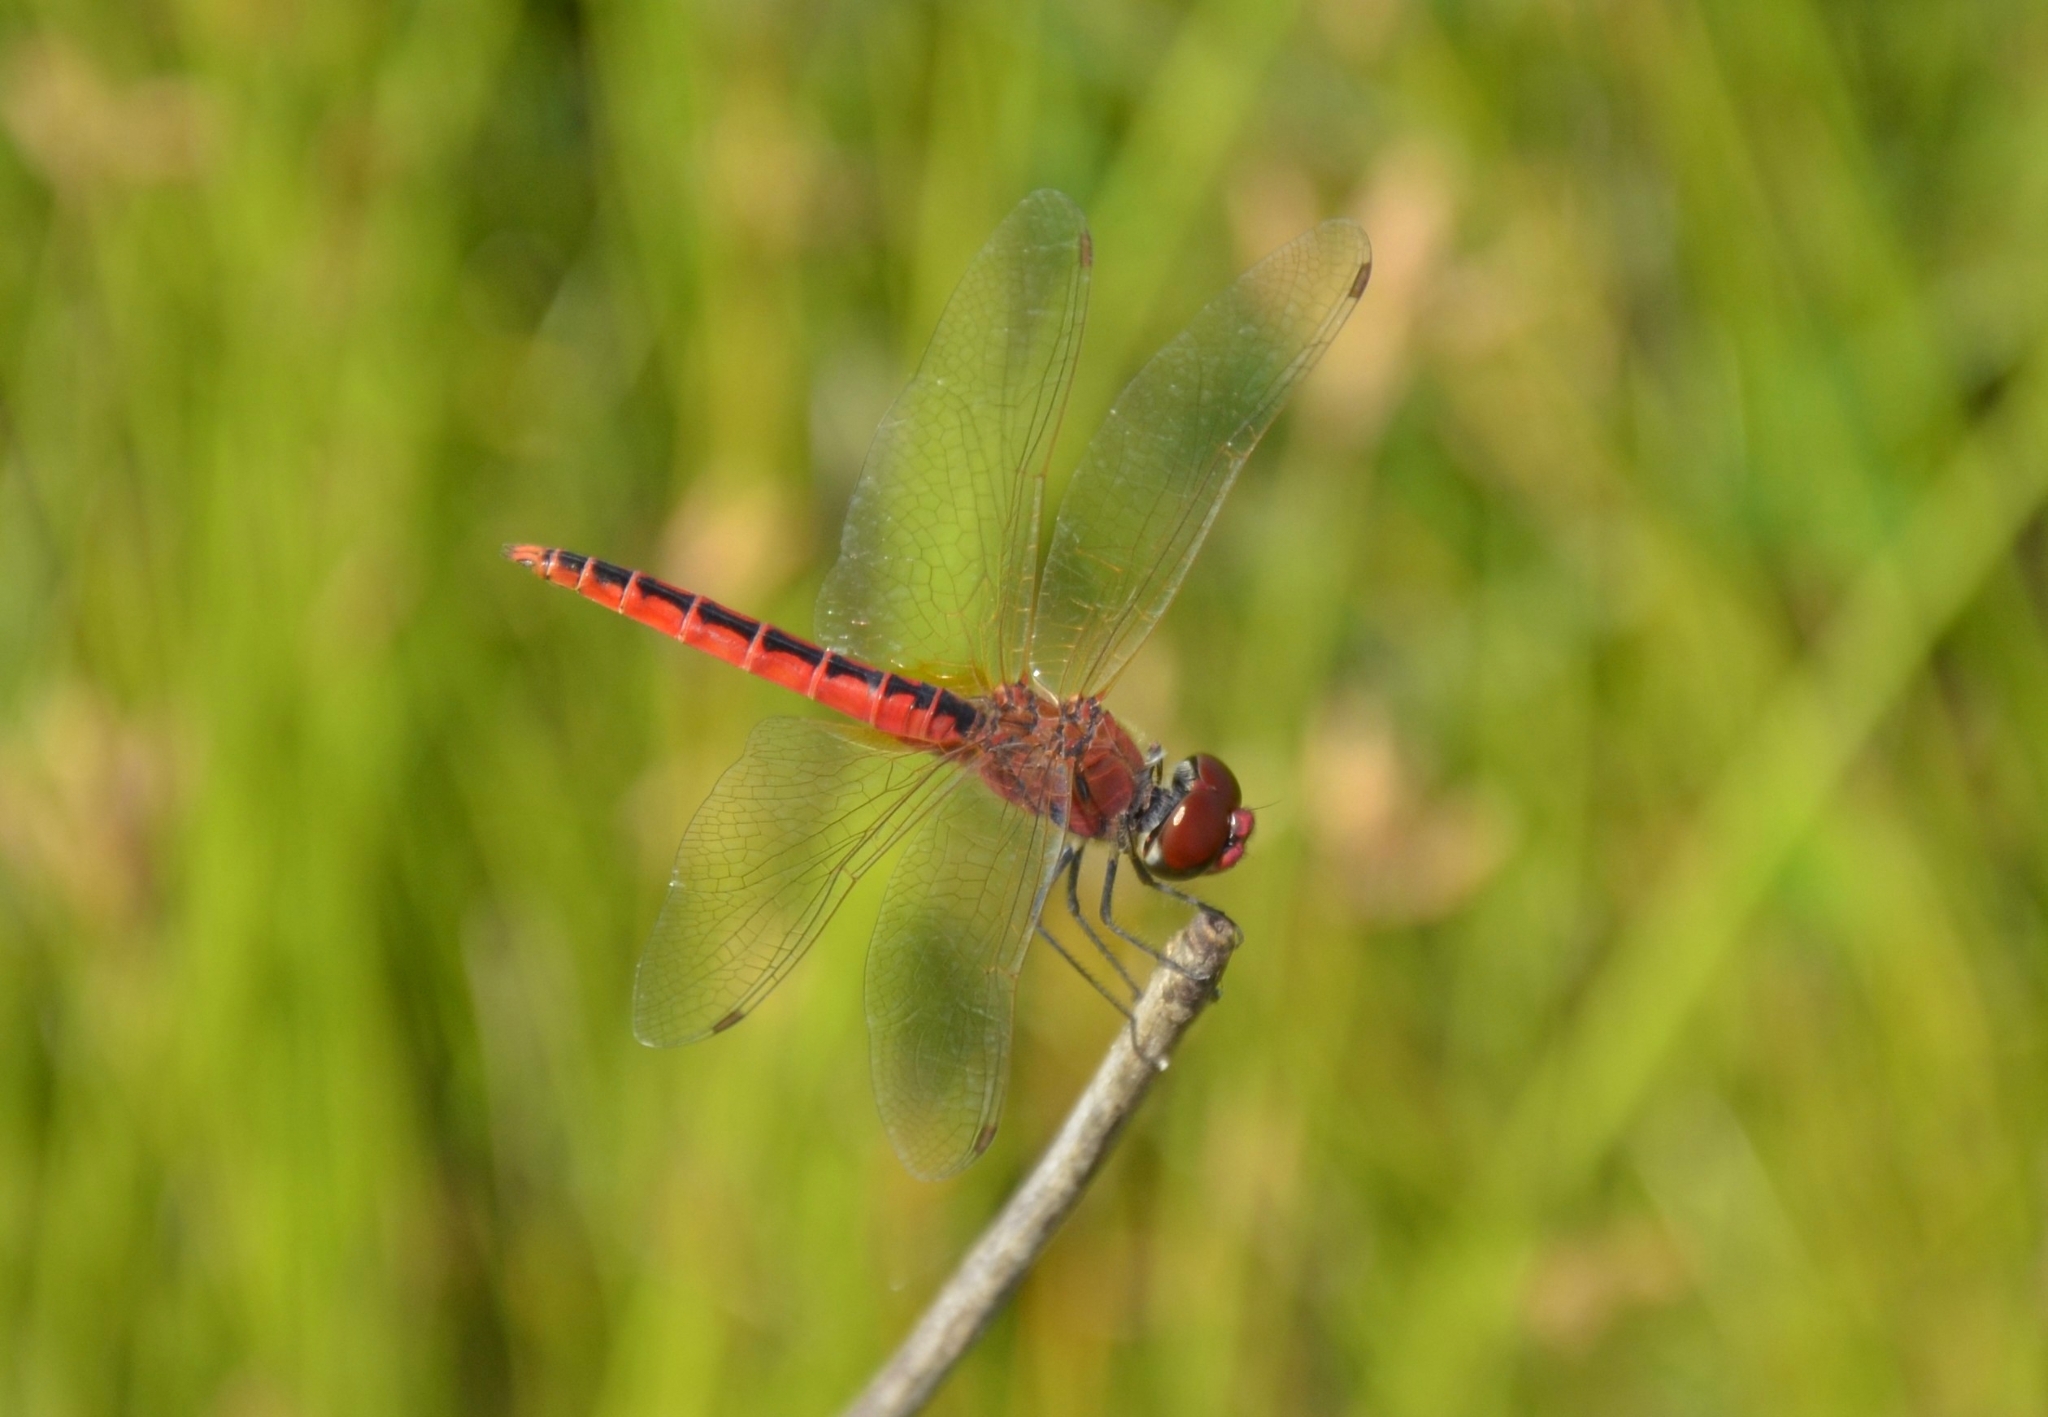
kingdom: Animalia
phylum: Arthropoda
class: Insecta
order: Odonata
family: Libellulidae
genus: Macrodiplax
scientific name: Macrodiplax cora
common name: Coastal glider
